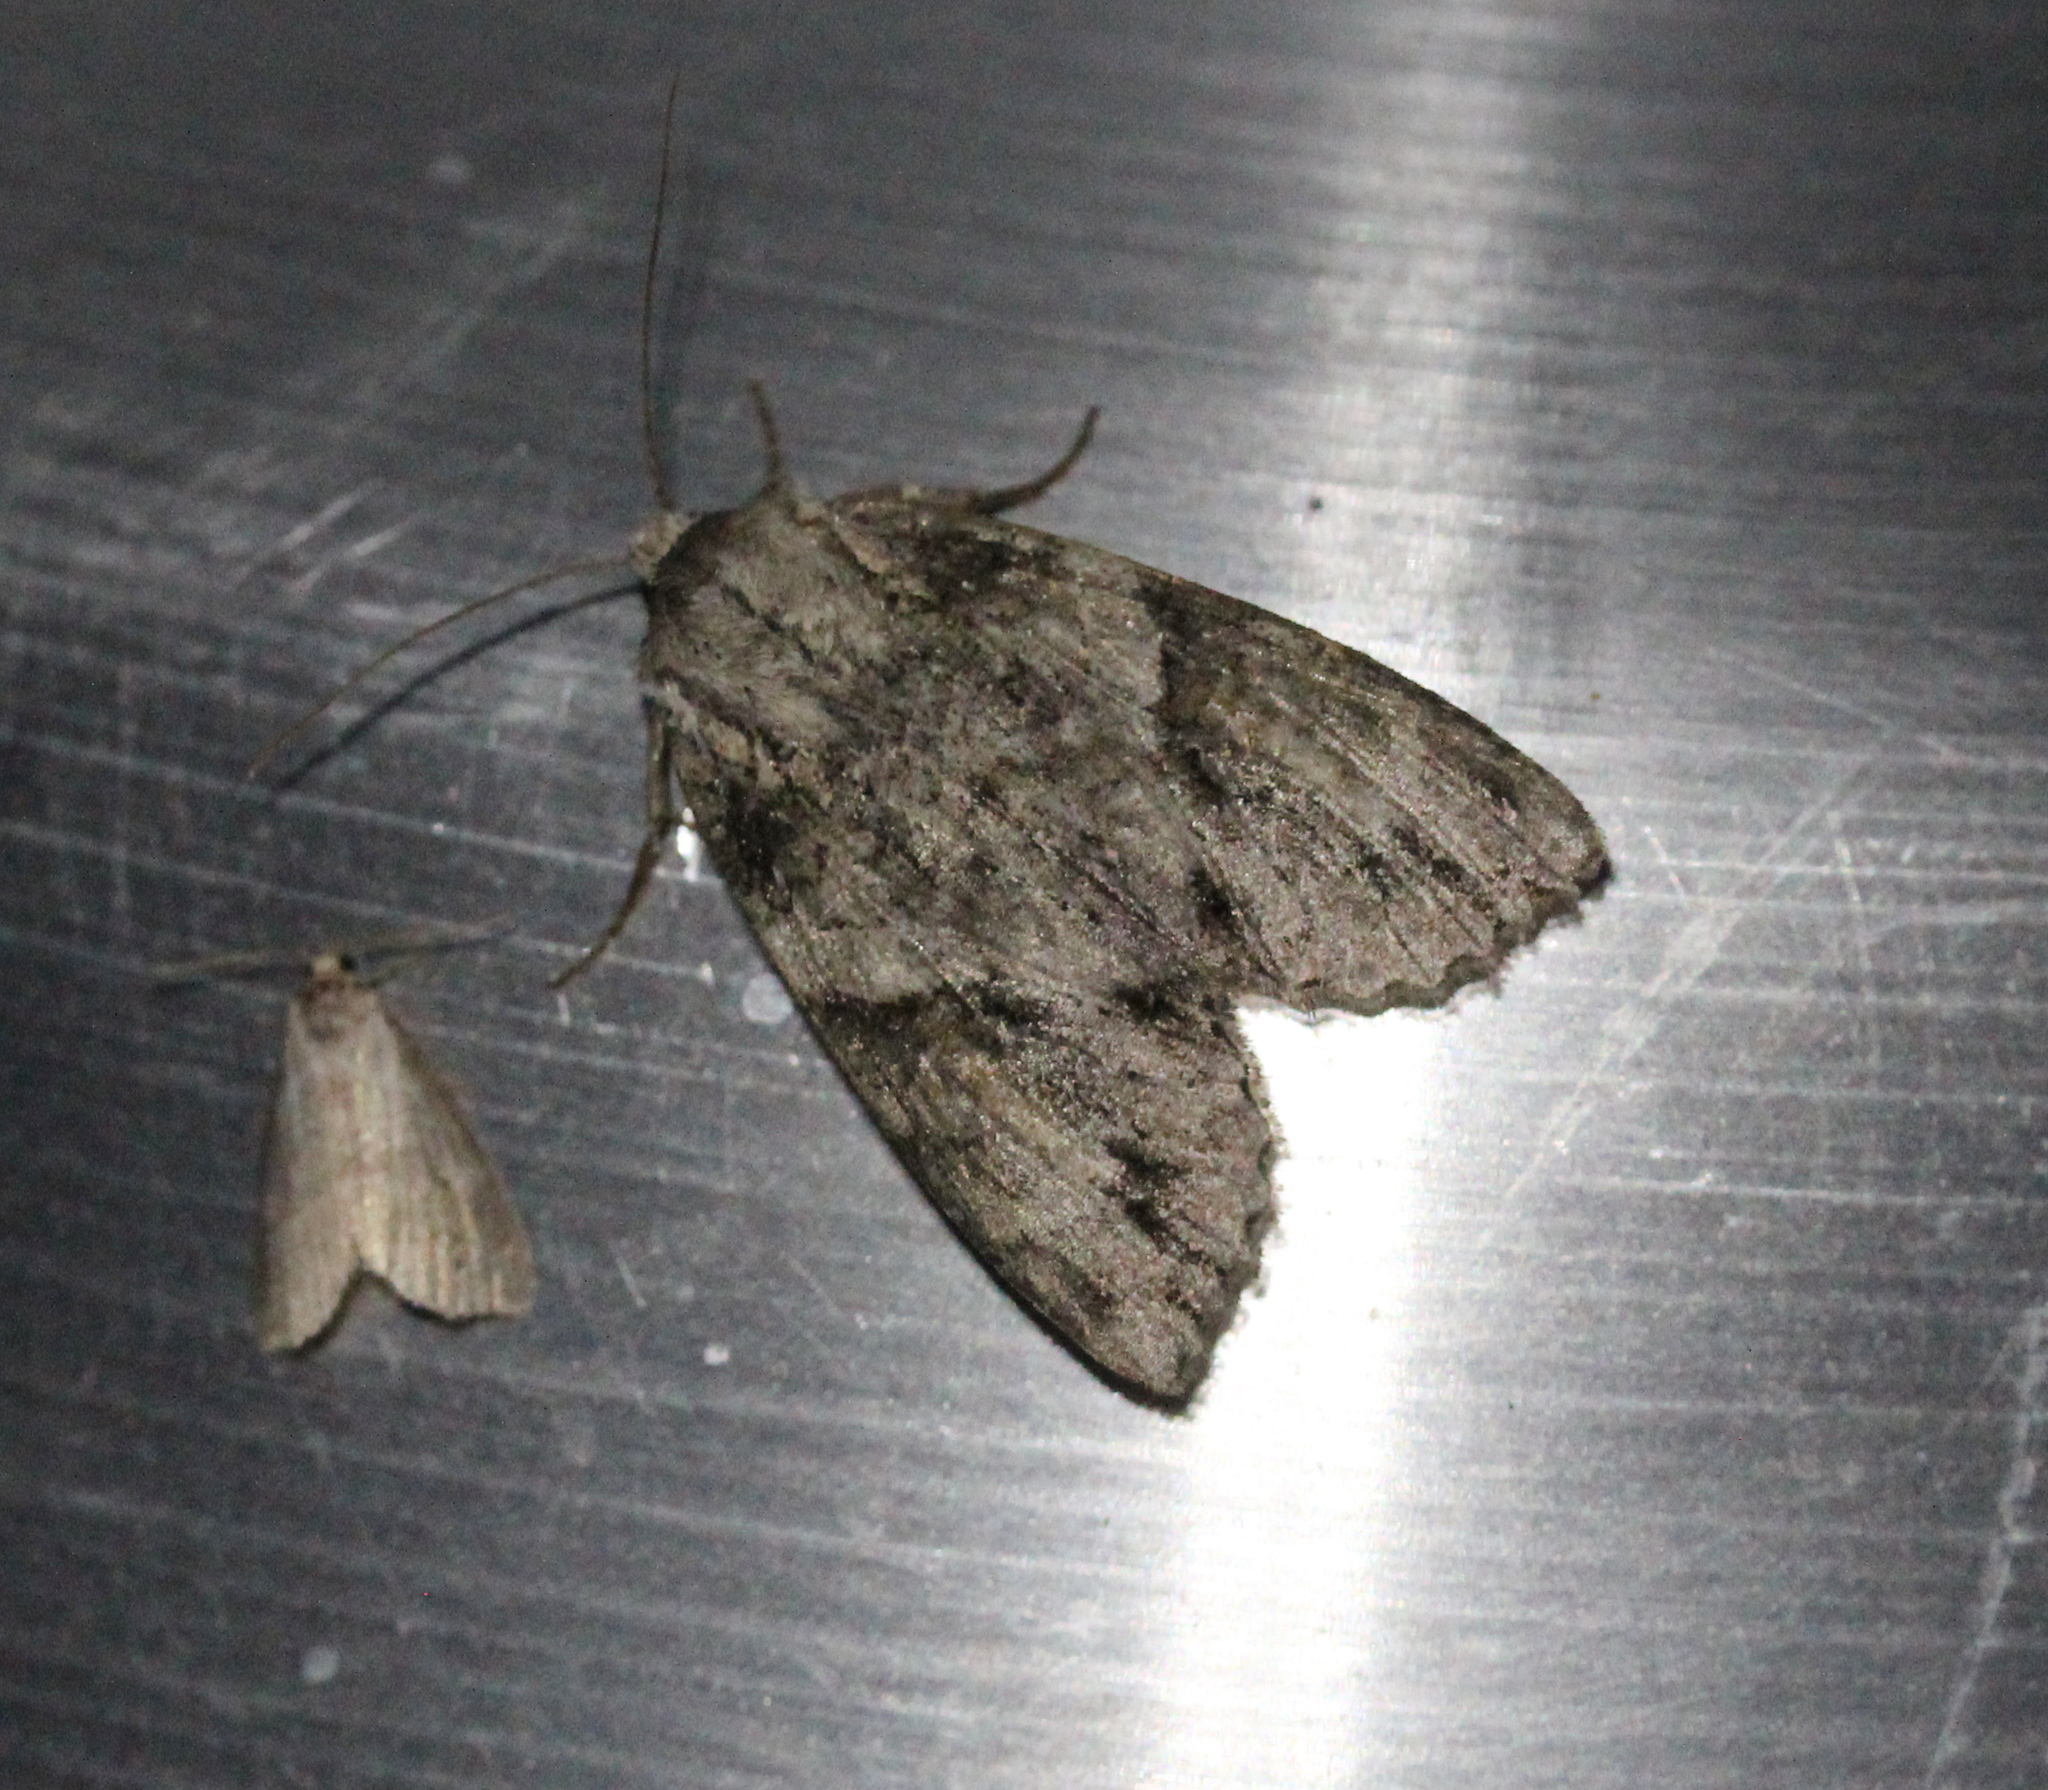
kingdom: Animalia
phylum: Arthropoda
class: Insecta
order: Lepidoptera
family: Noctuidae
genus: Achatia
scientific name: Achatia latex
